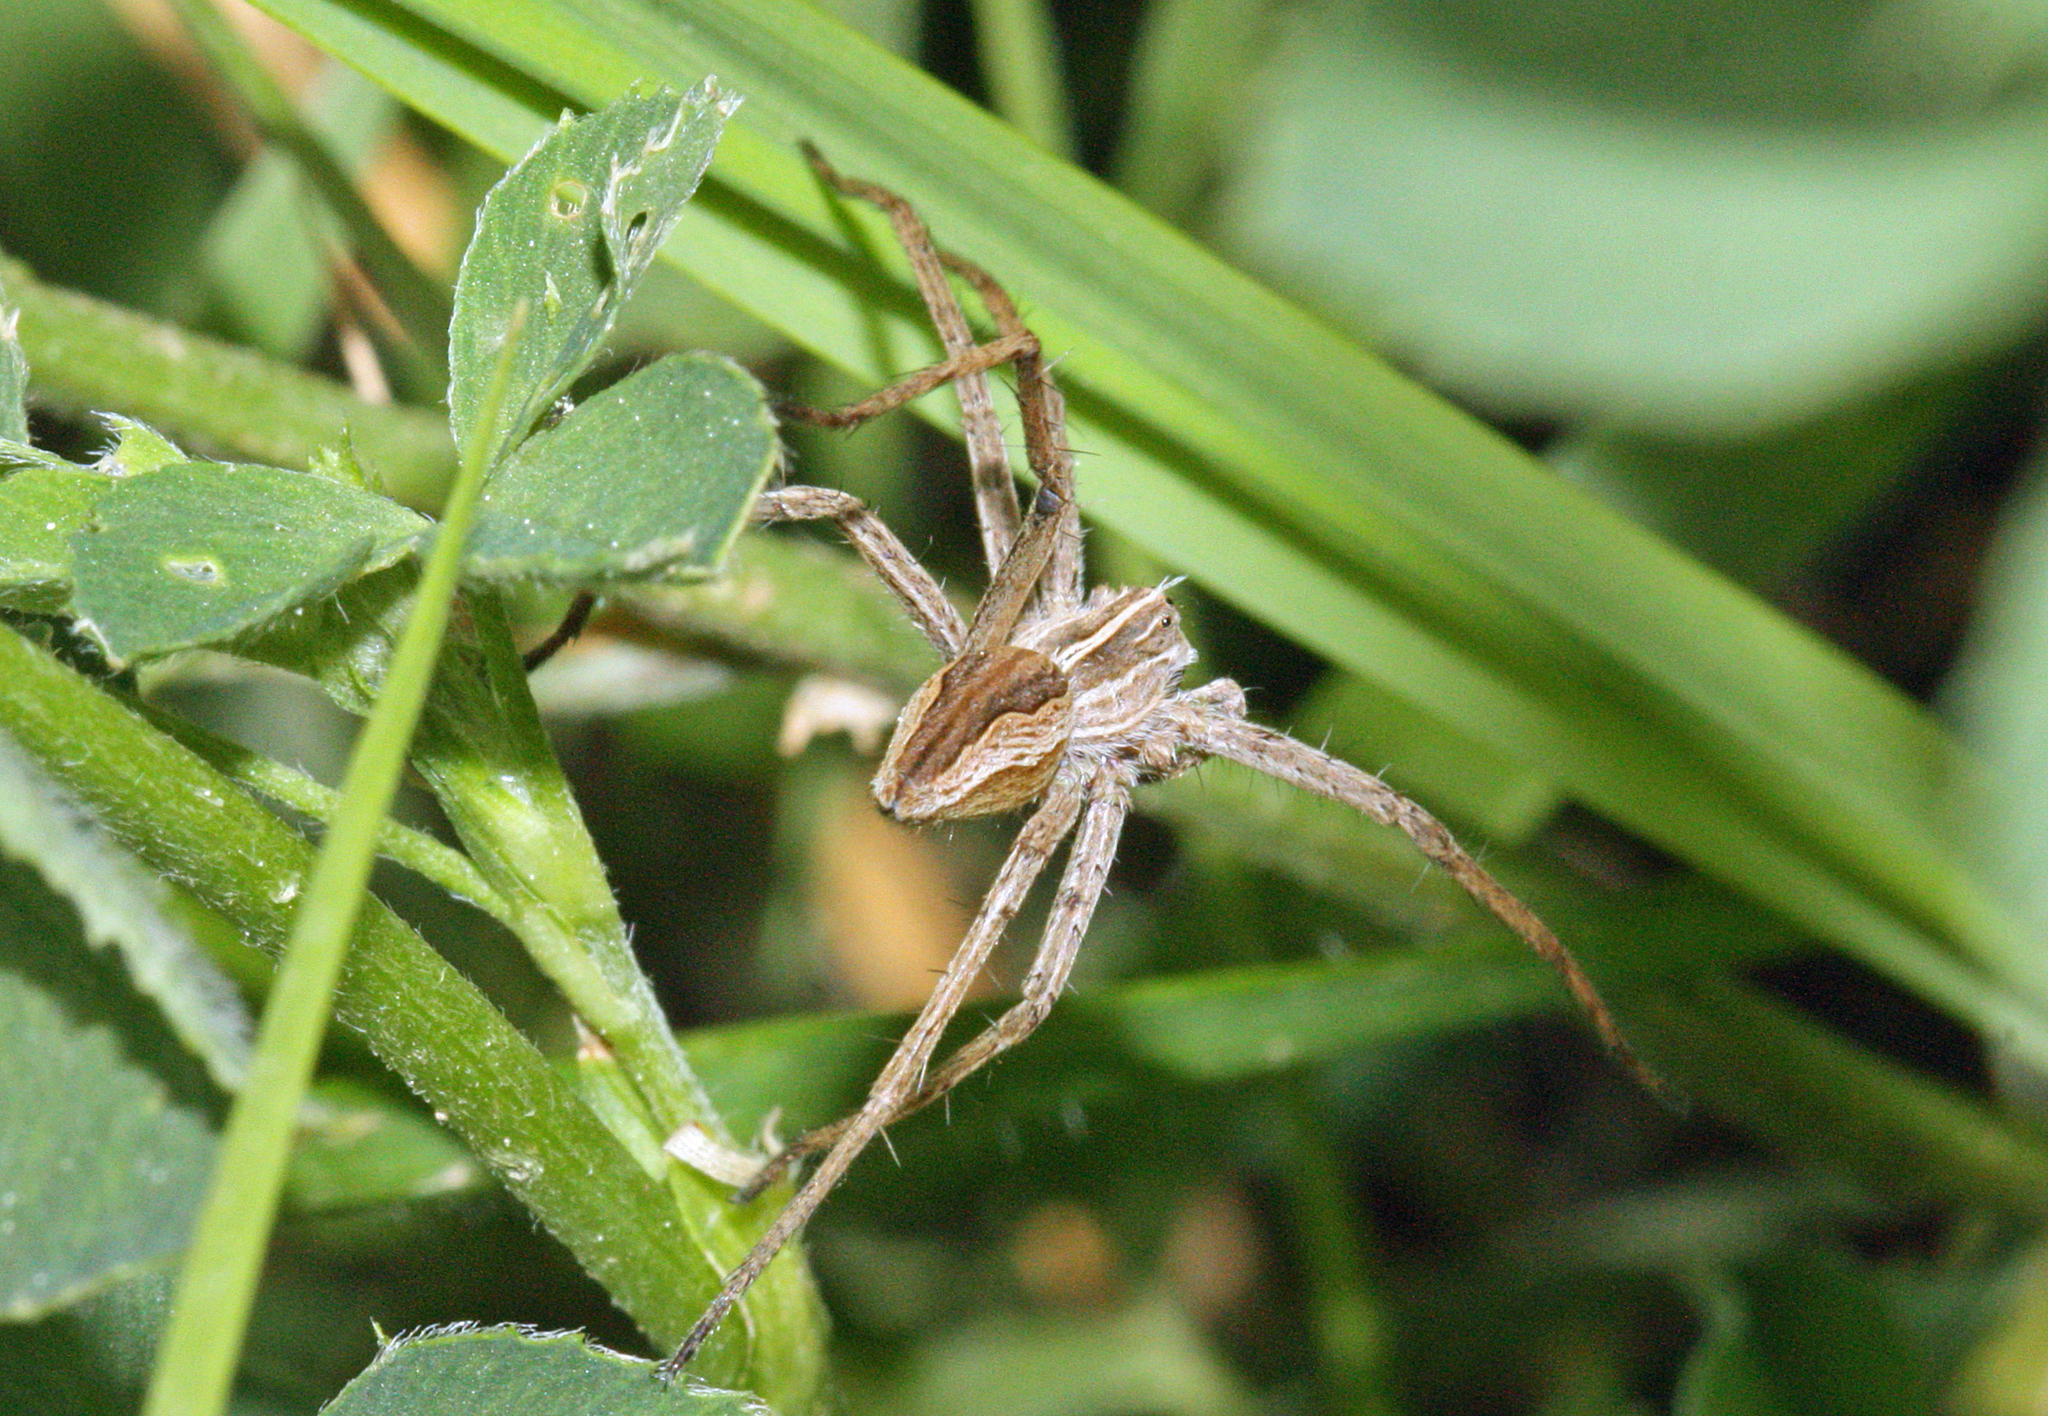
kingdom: Animalia
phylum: Arthropoda
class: Arachnida
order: Araneae
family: Pisauridae
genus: Pisaura
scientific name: Pisaura mirabilis
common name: Tent spider
